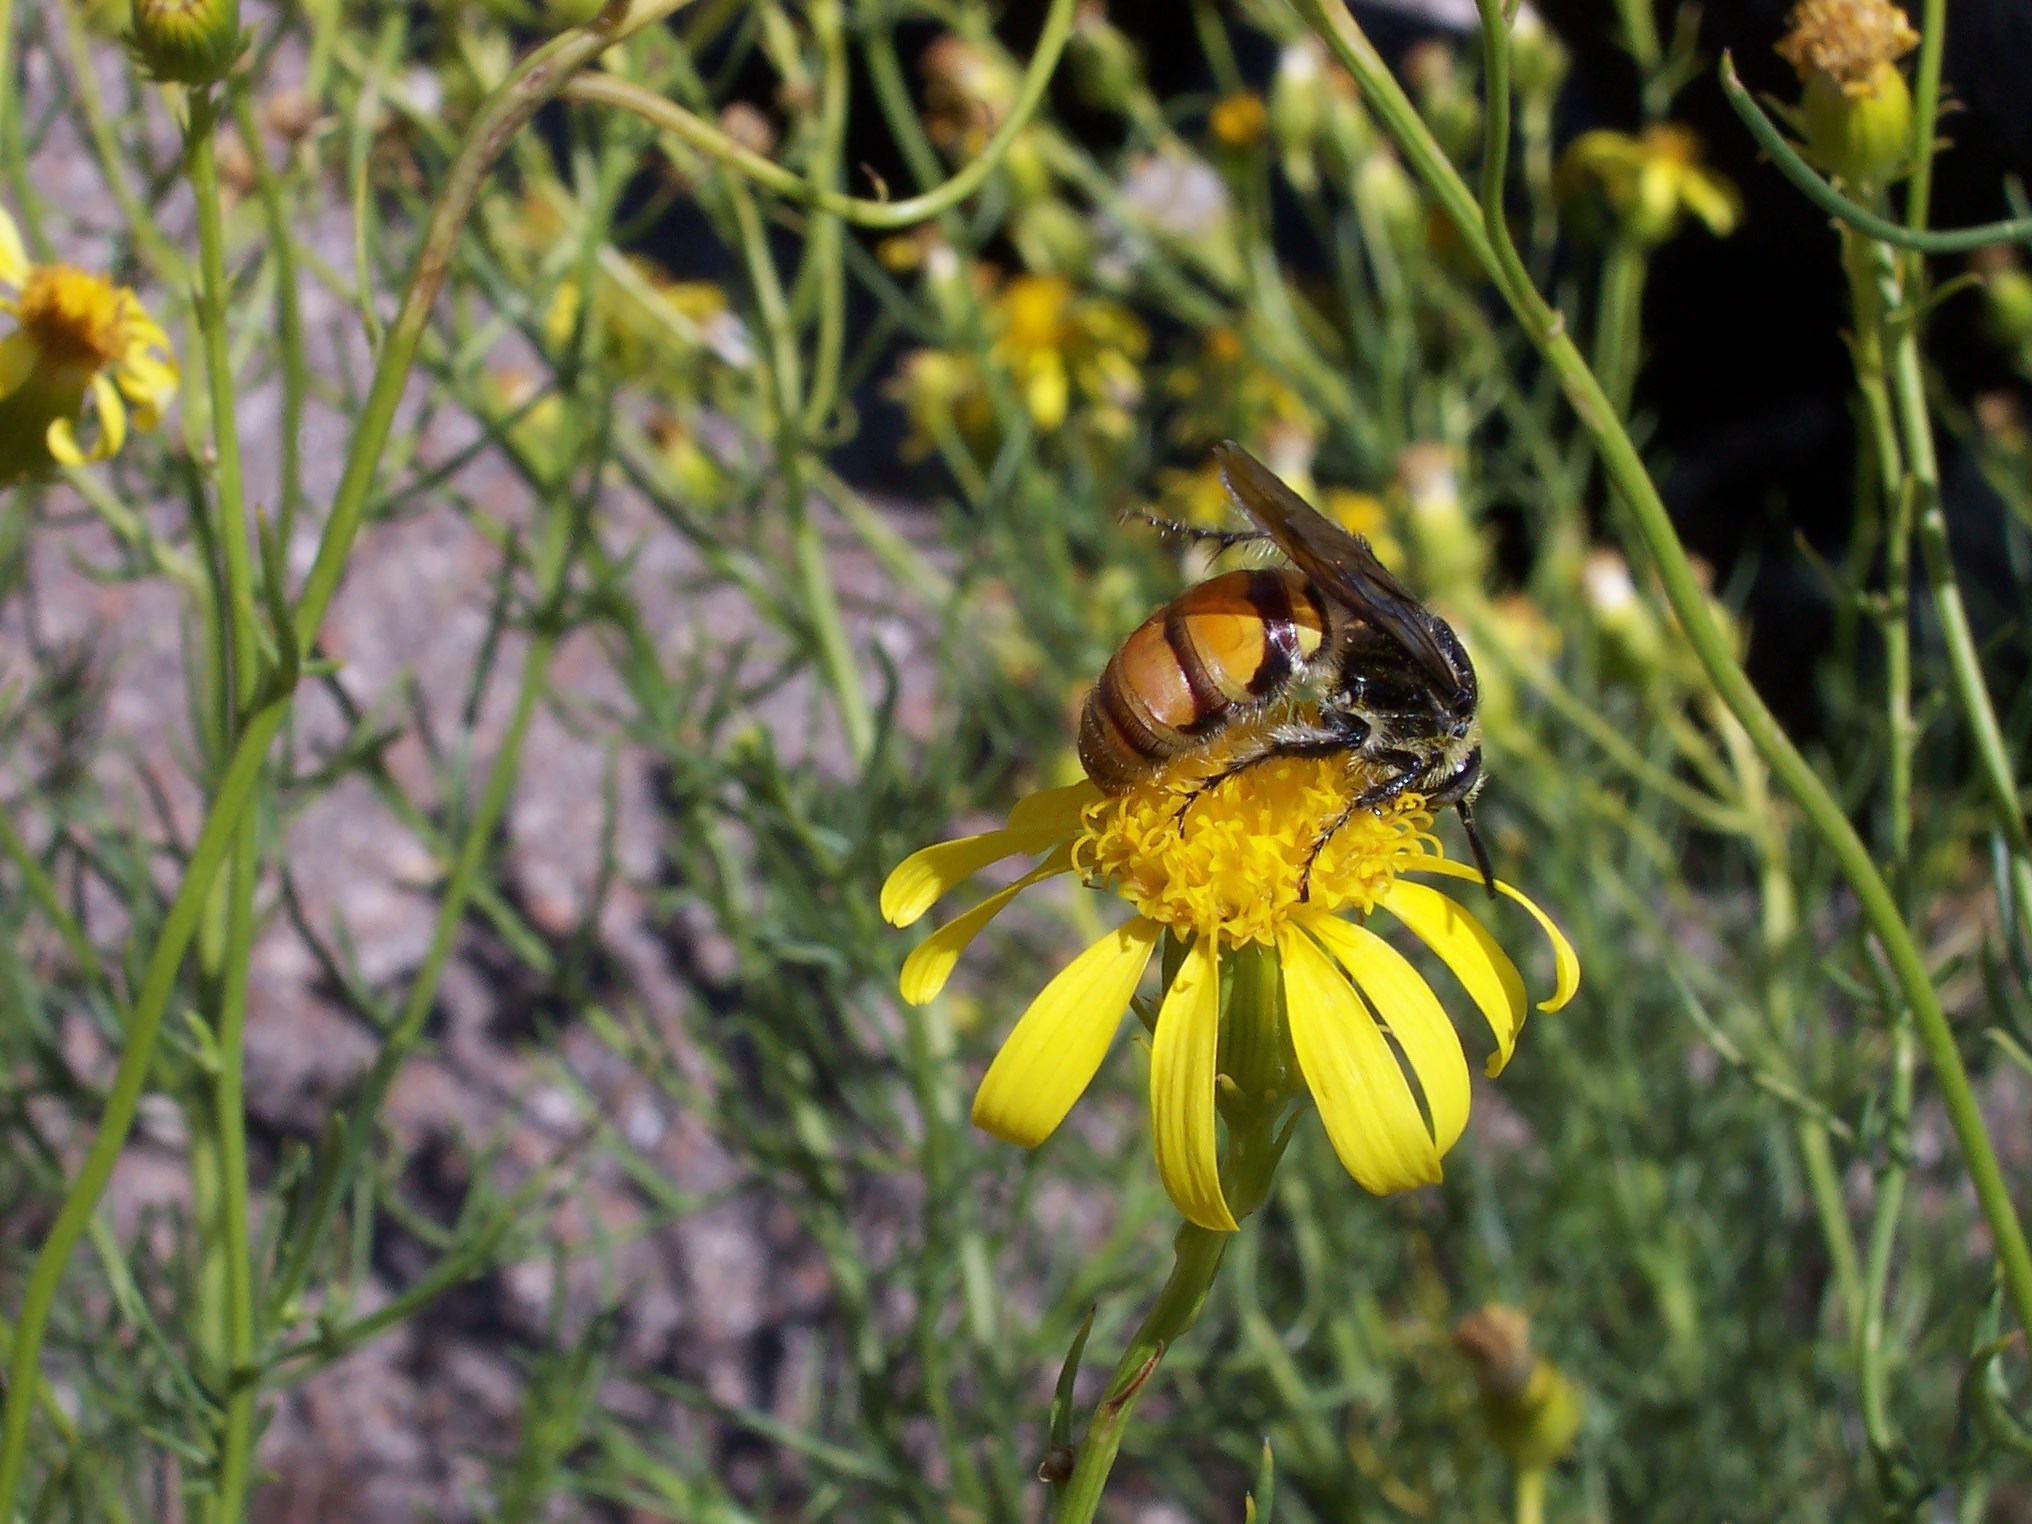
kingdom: Animalia
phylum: Arthropoda
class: Insecta
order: Hymenoptera
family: Scoliidae
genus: Dielis
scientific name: Dielis tolteca
